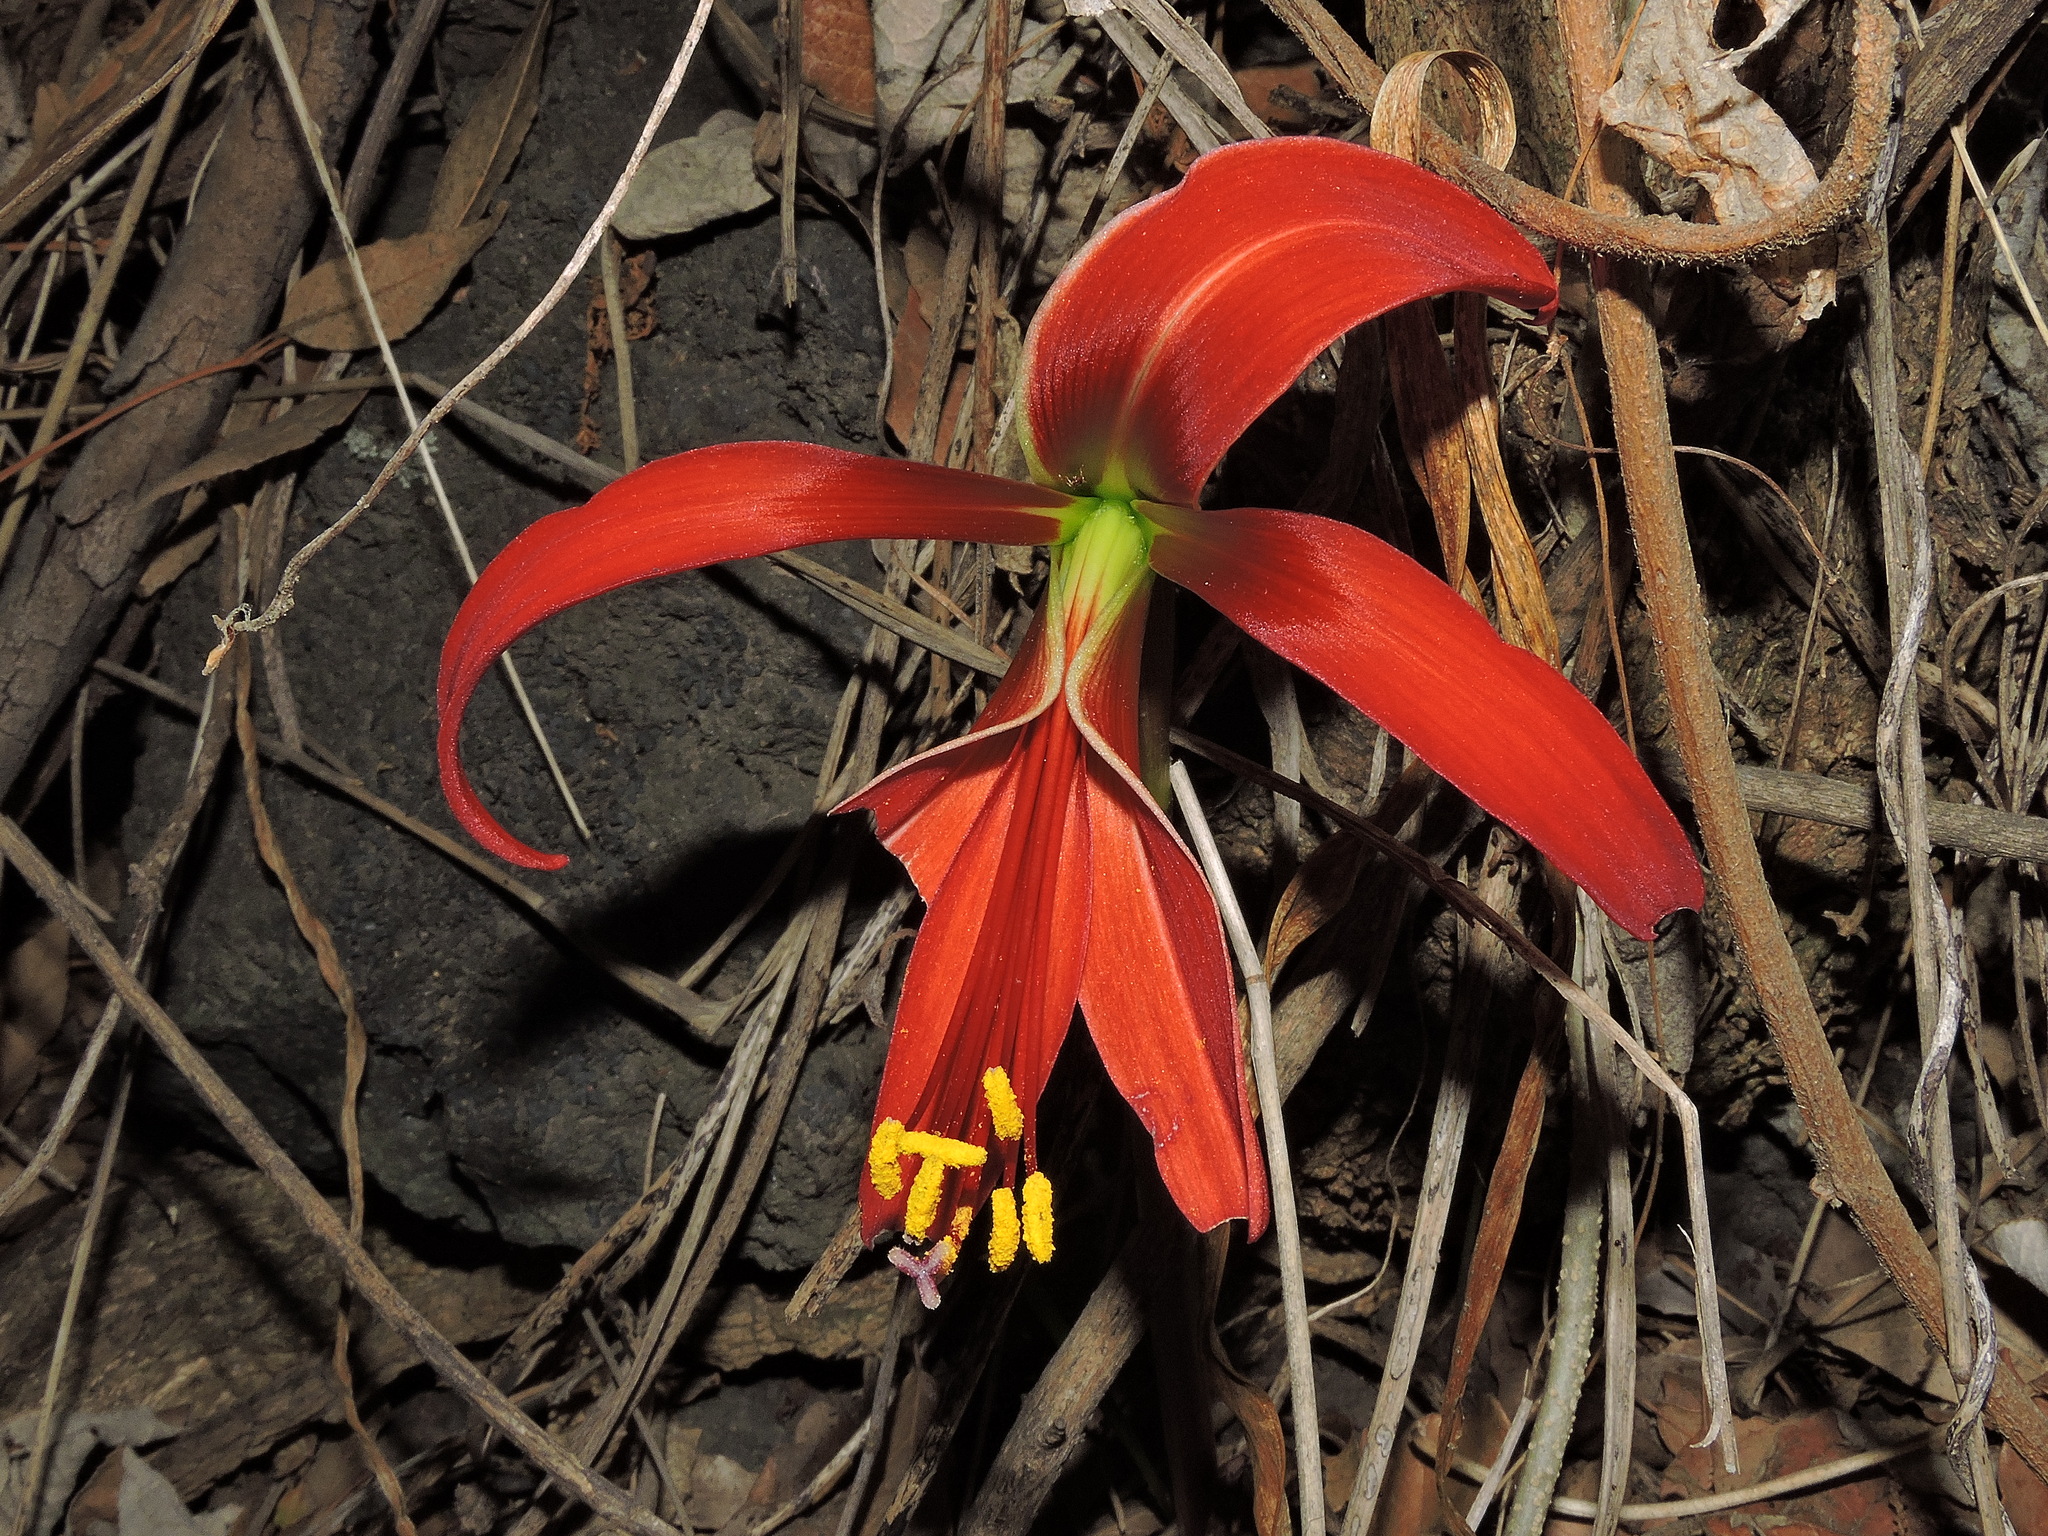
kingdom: Plantae
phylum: Tracheophyta
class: Liliopsida
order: Asparagales
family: Amaryllidaceae
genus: Sprekelia
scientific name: Sprekelia formosissima
